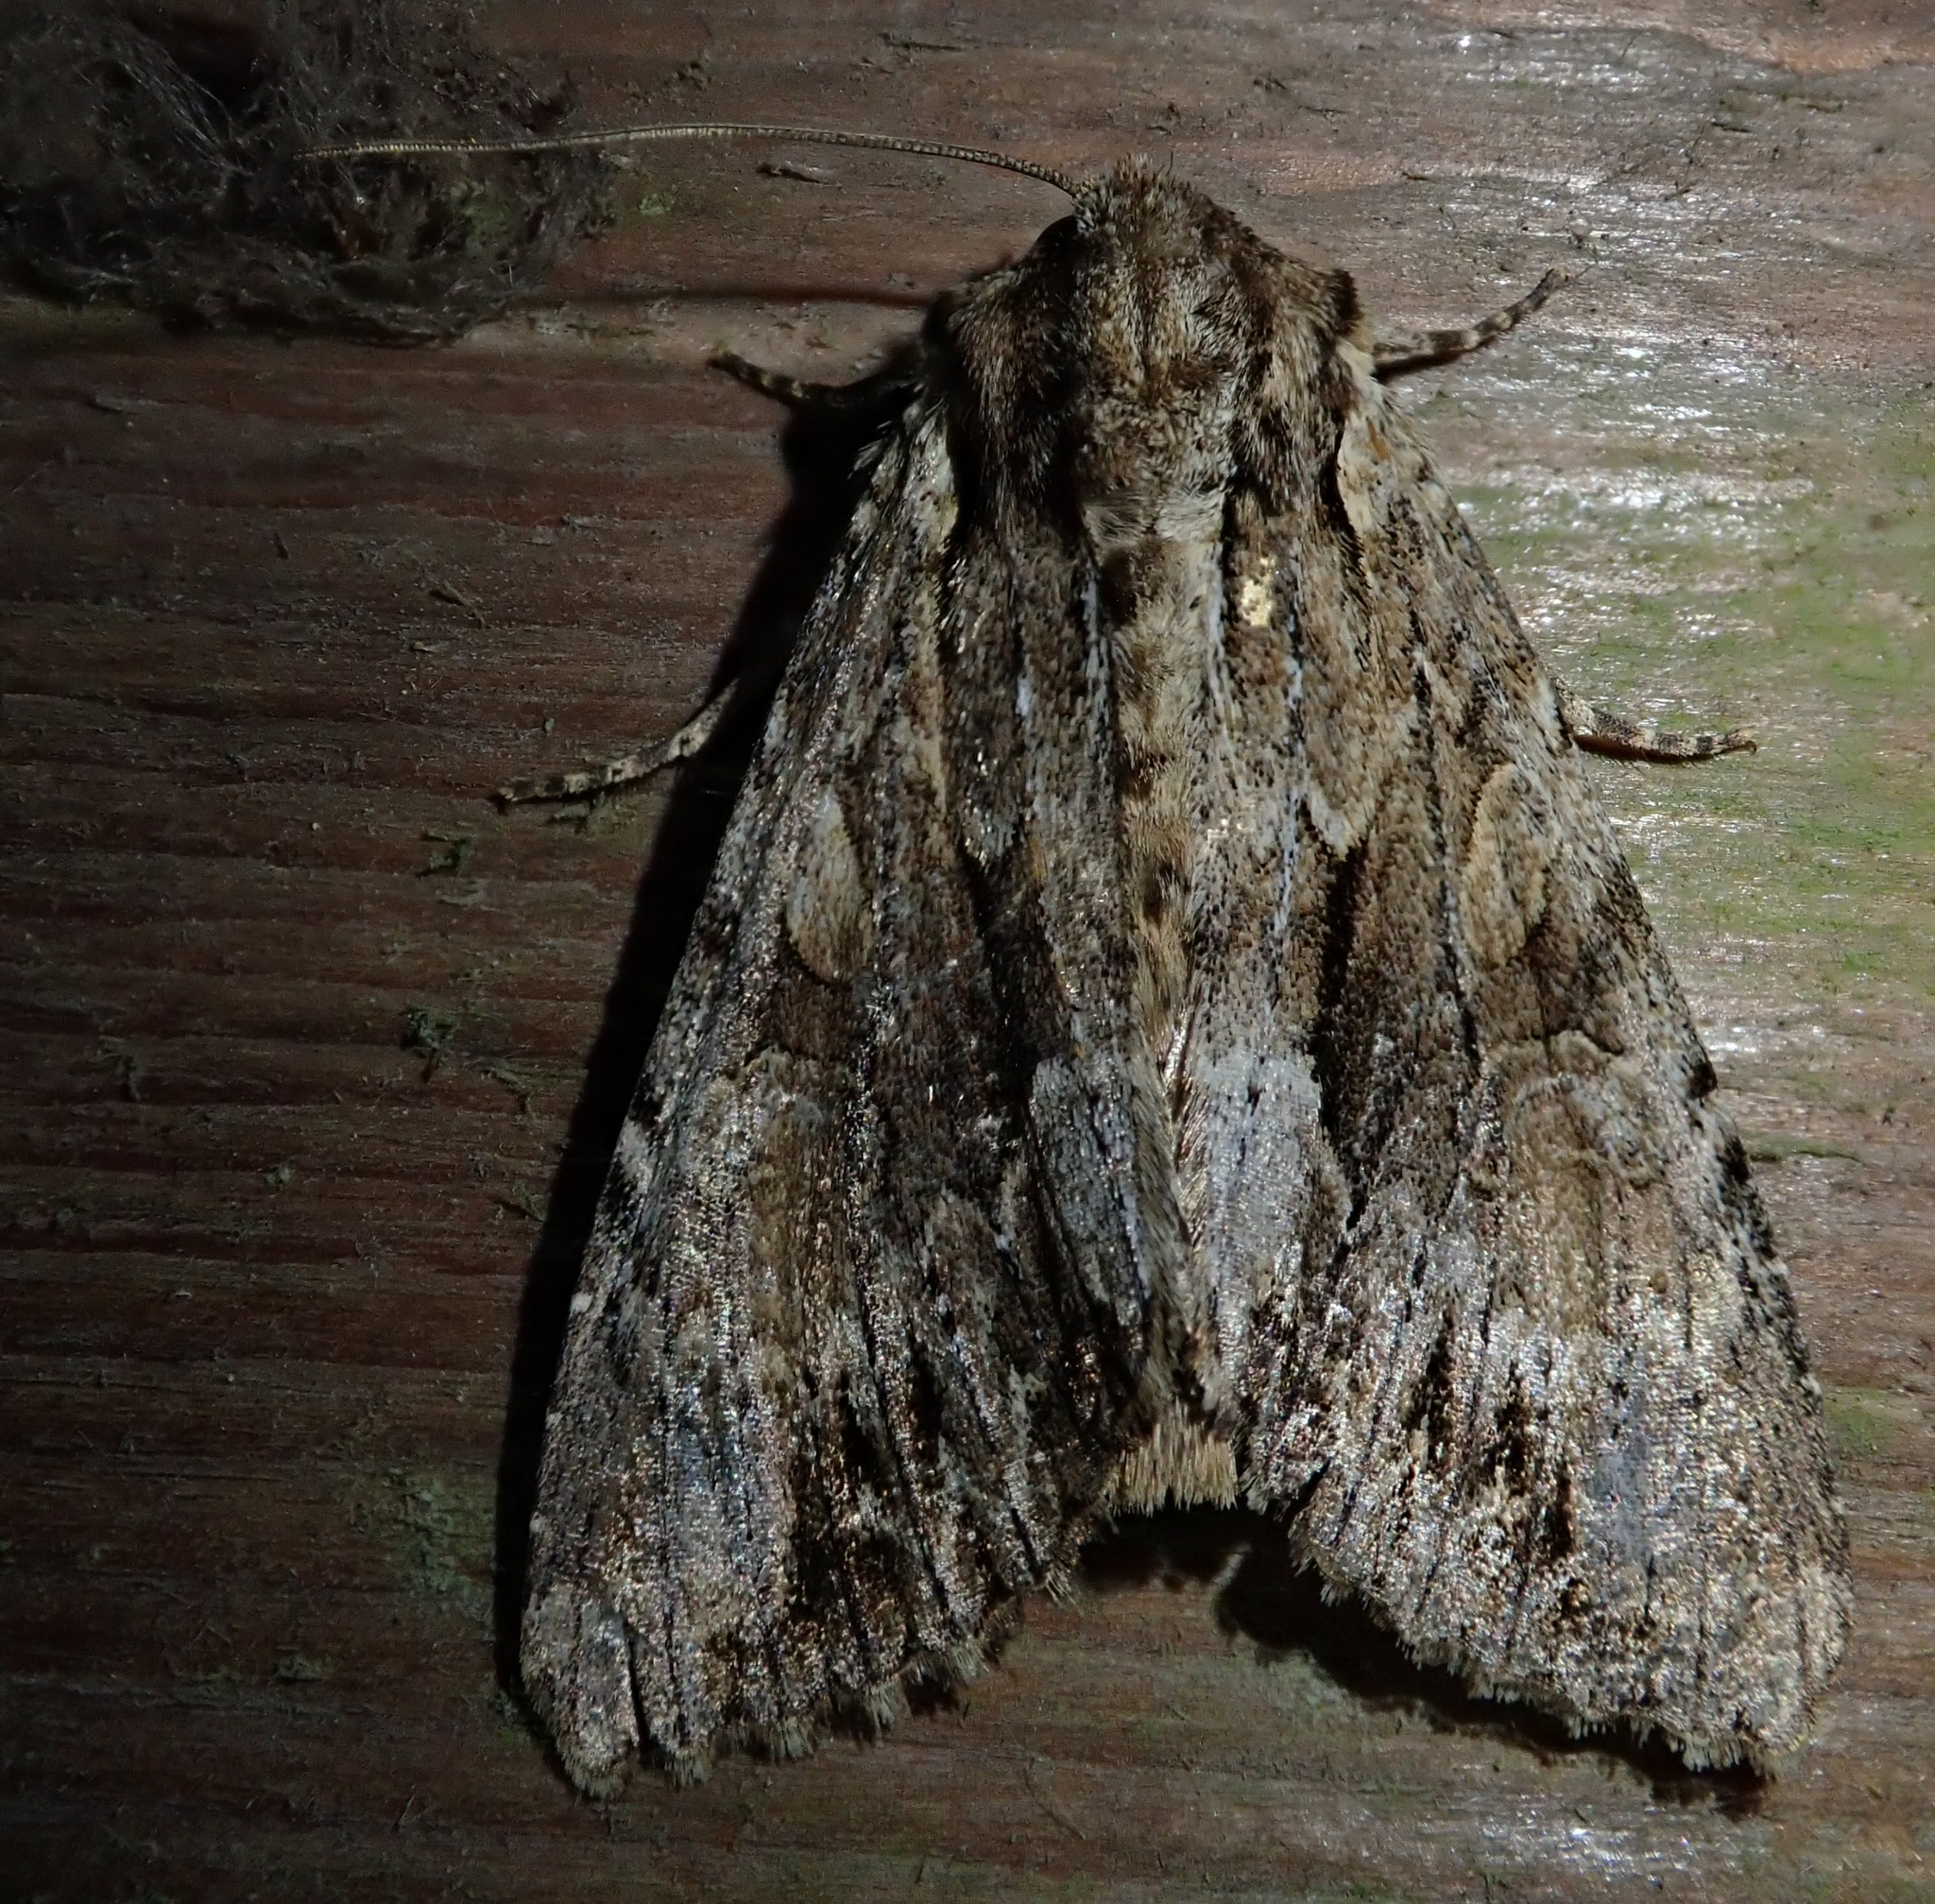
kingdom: Animalia
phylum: Arthropoda
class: Insecta
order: Lepidoptera
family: Noctuidae
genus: Apamea
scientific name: Apamea monoglypha
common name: Dark arches
